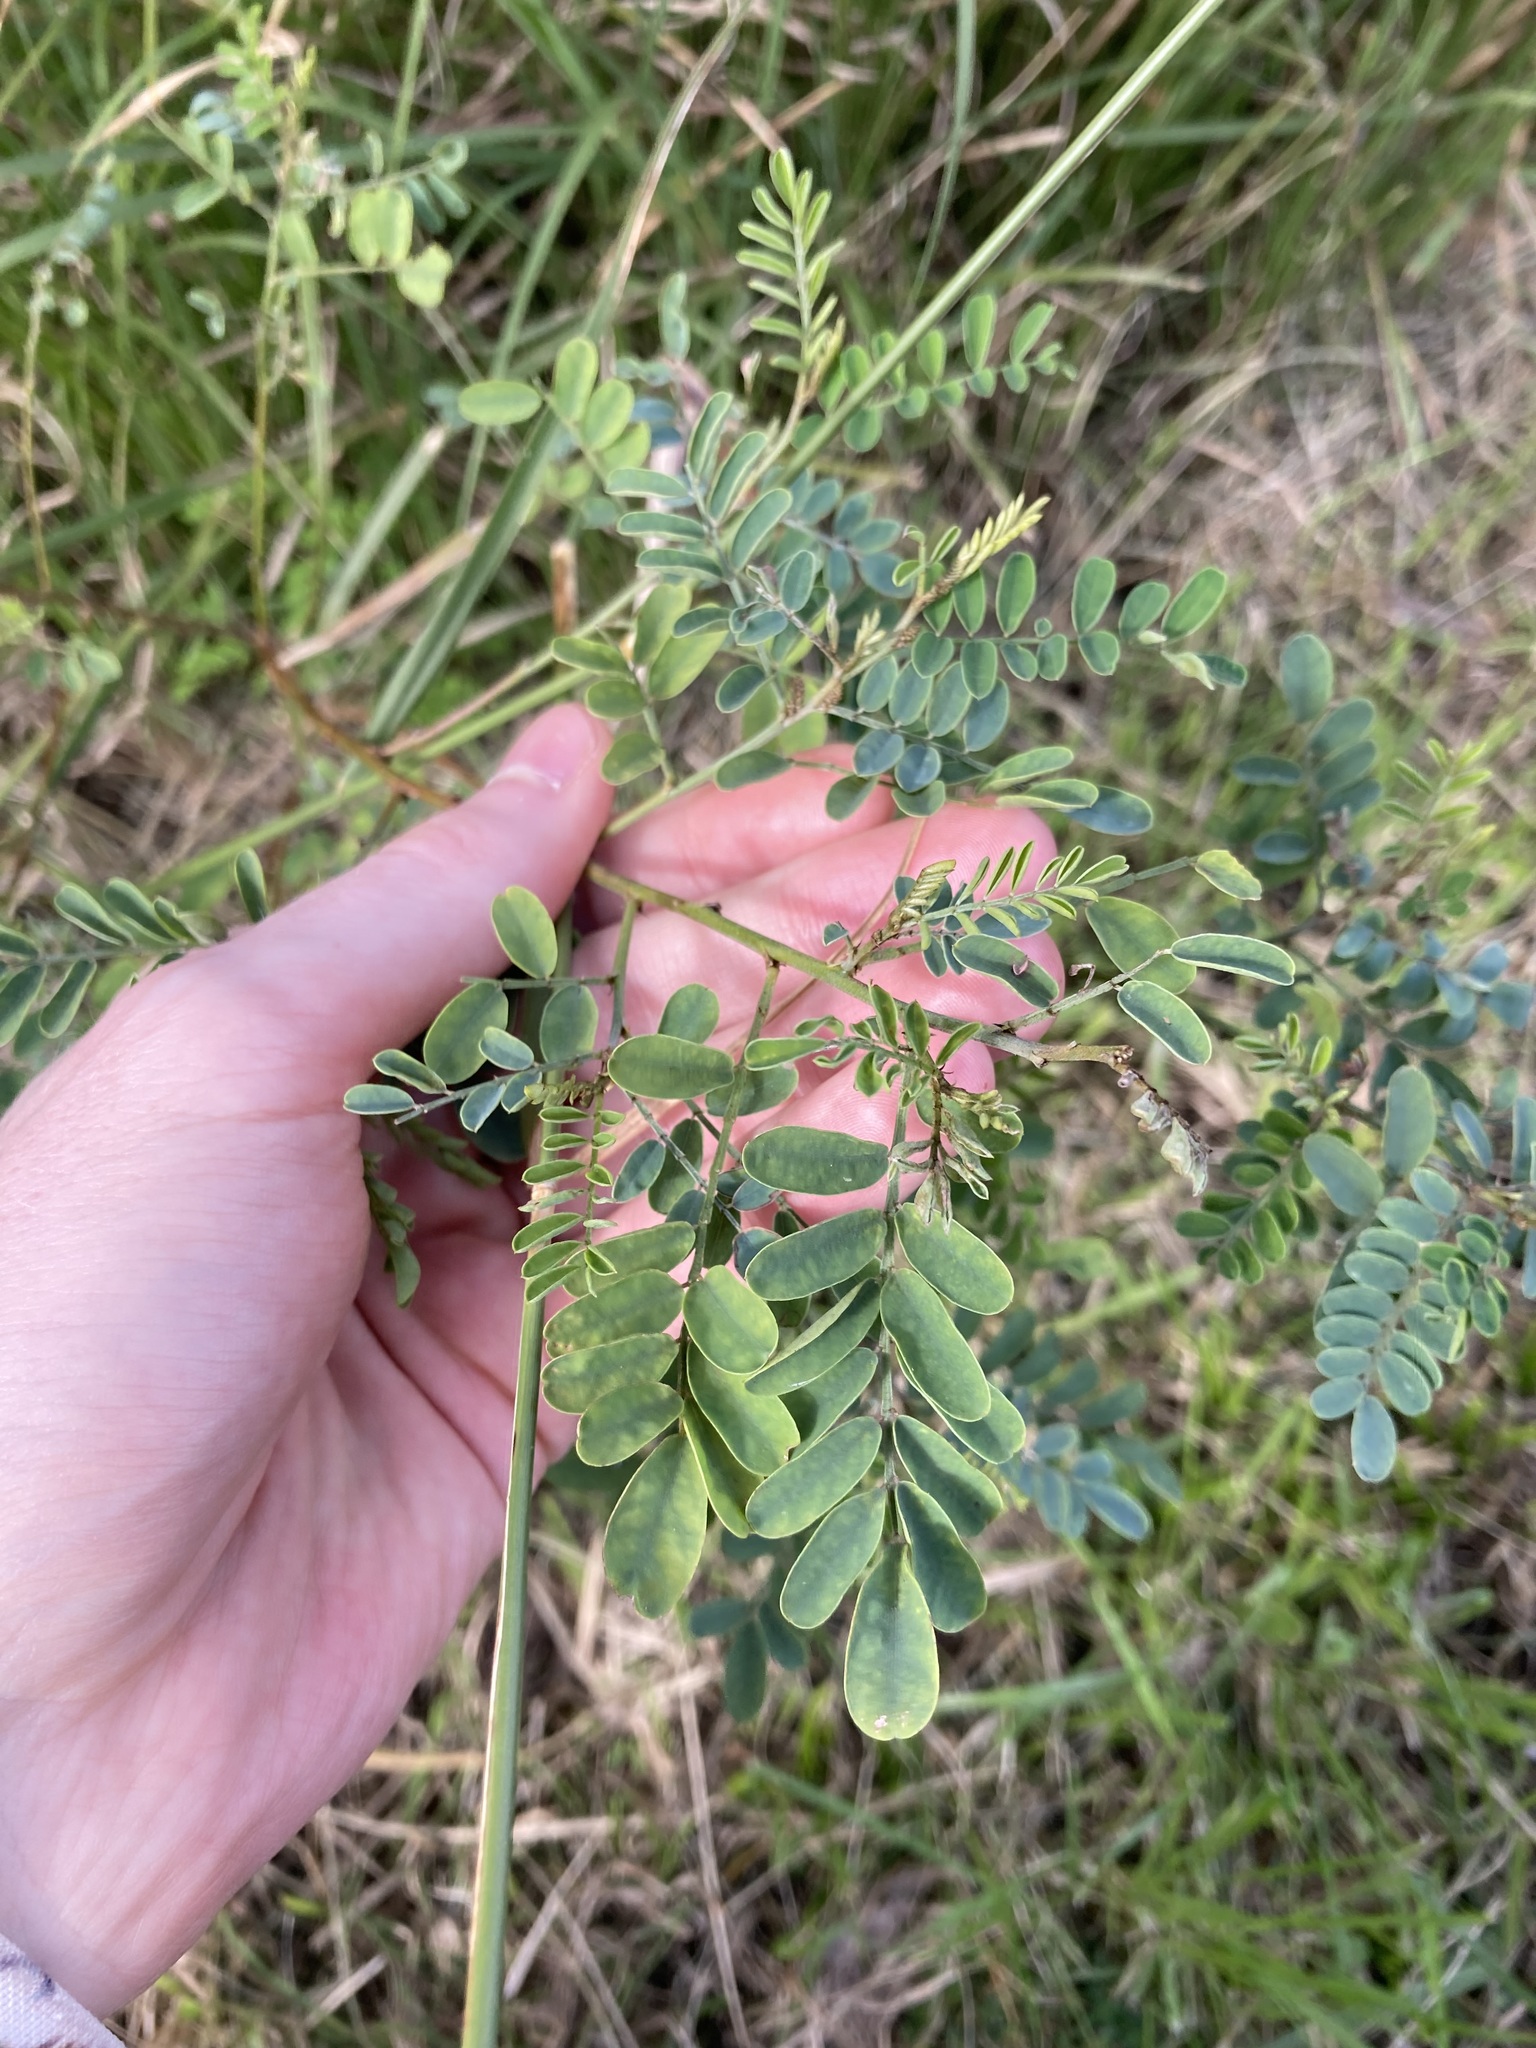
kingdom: Plantae
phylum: Tracheophyta
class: Magnoliopsida
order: Fabales
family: Fabaceae
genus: Indigofera
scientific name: Indigofera australis
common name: Australian indigo
